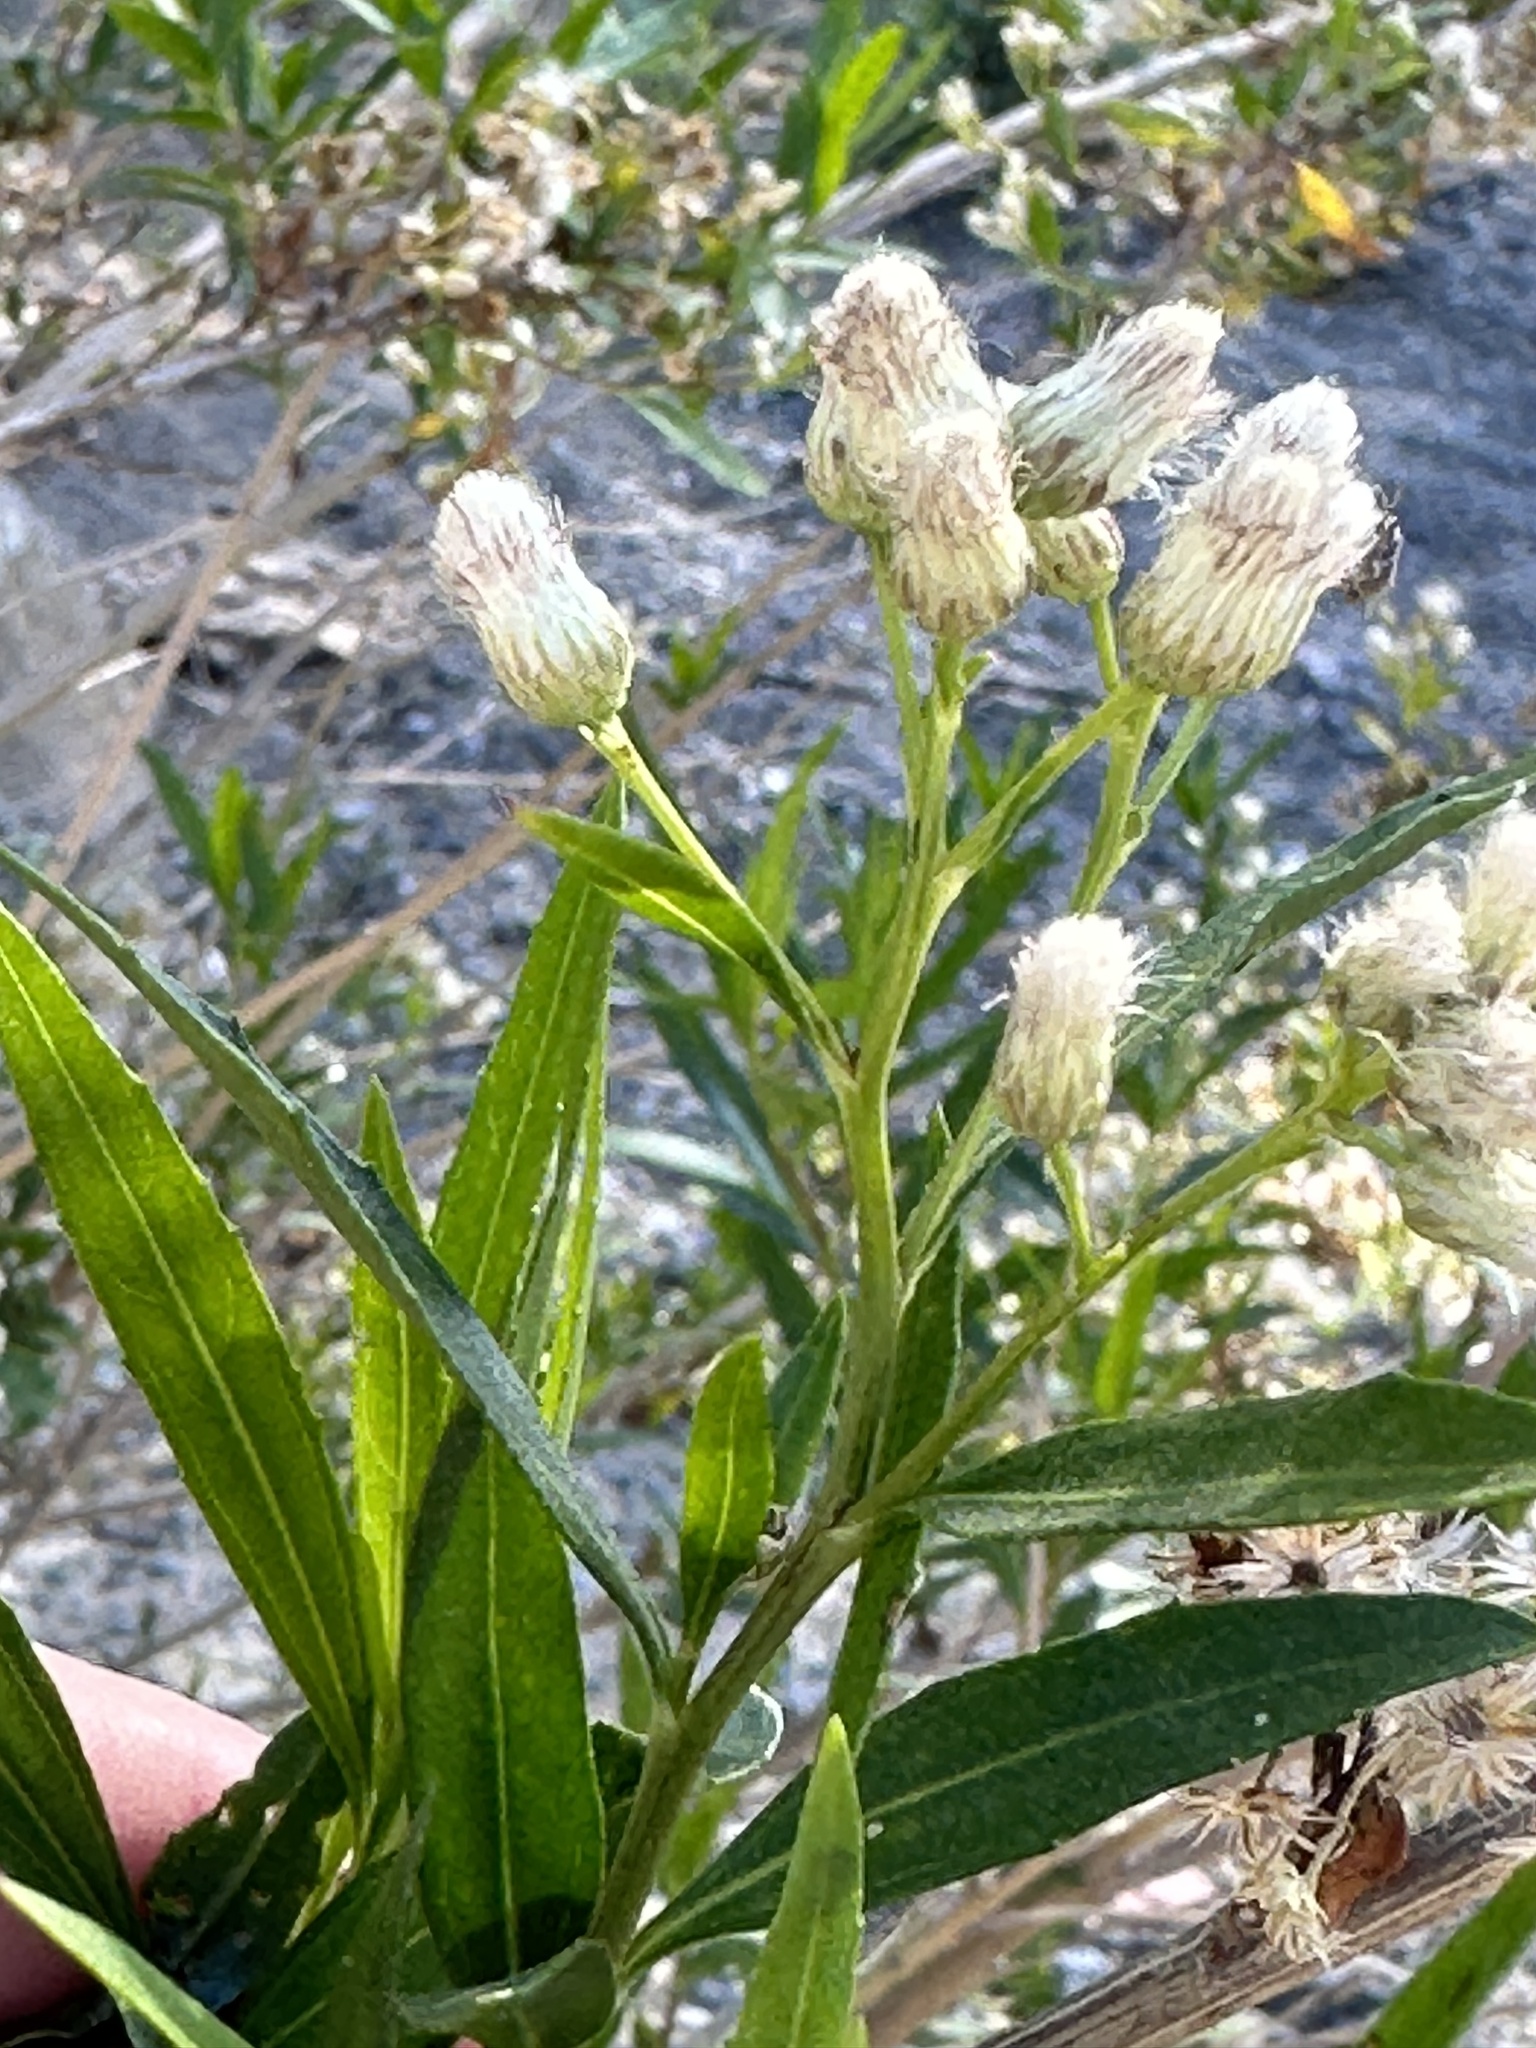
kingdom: Plantae
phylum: Tracheophyta
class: Magnoliopsida
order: Asterales
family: Asteraceae
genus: Baccharis
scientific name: Baccharis salicifolia
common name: Sticky baccharis
